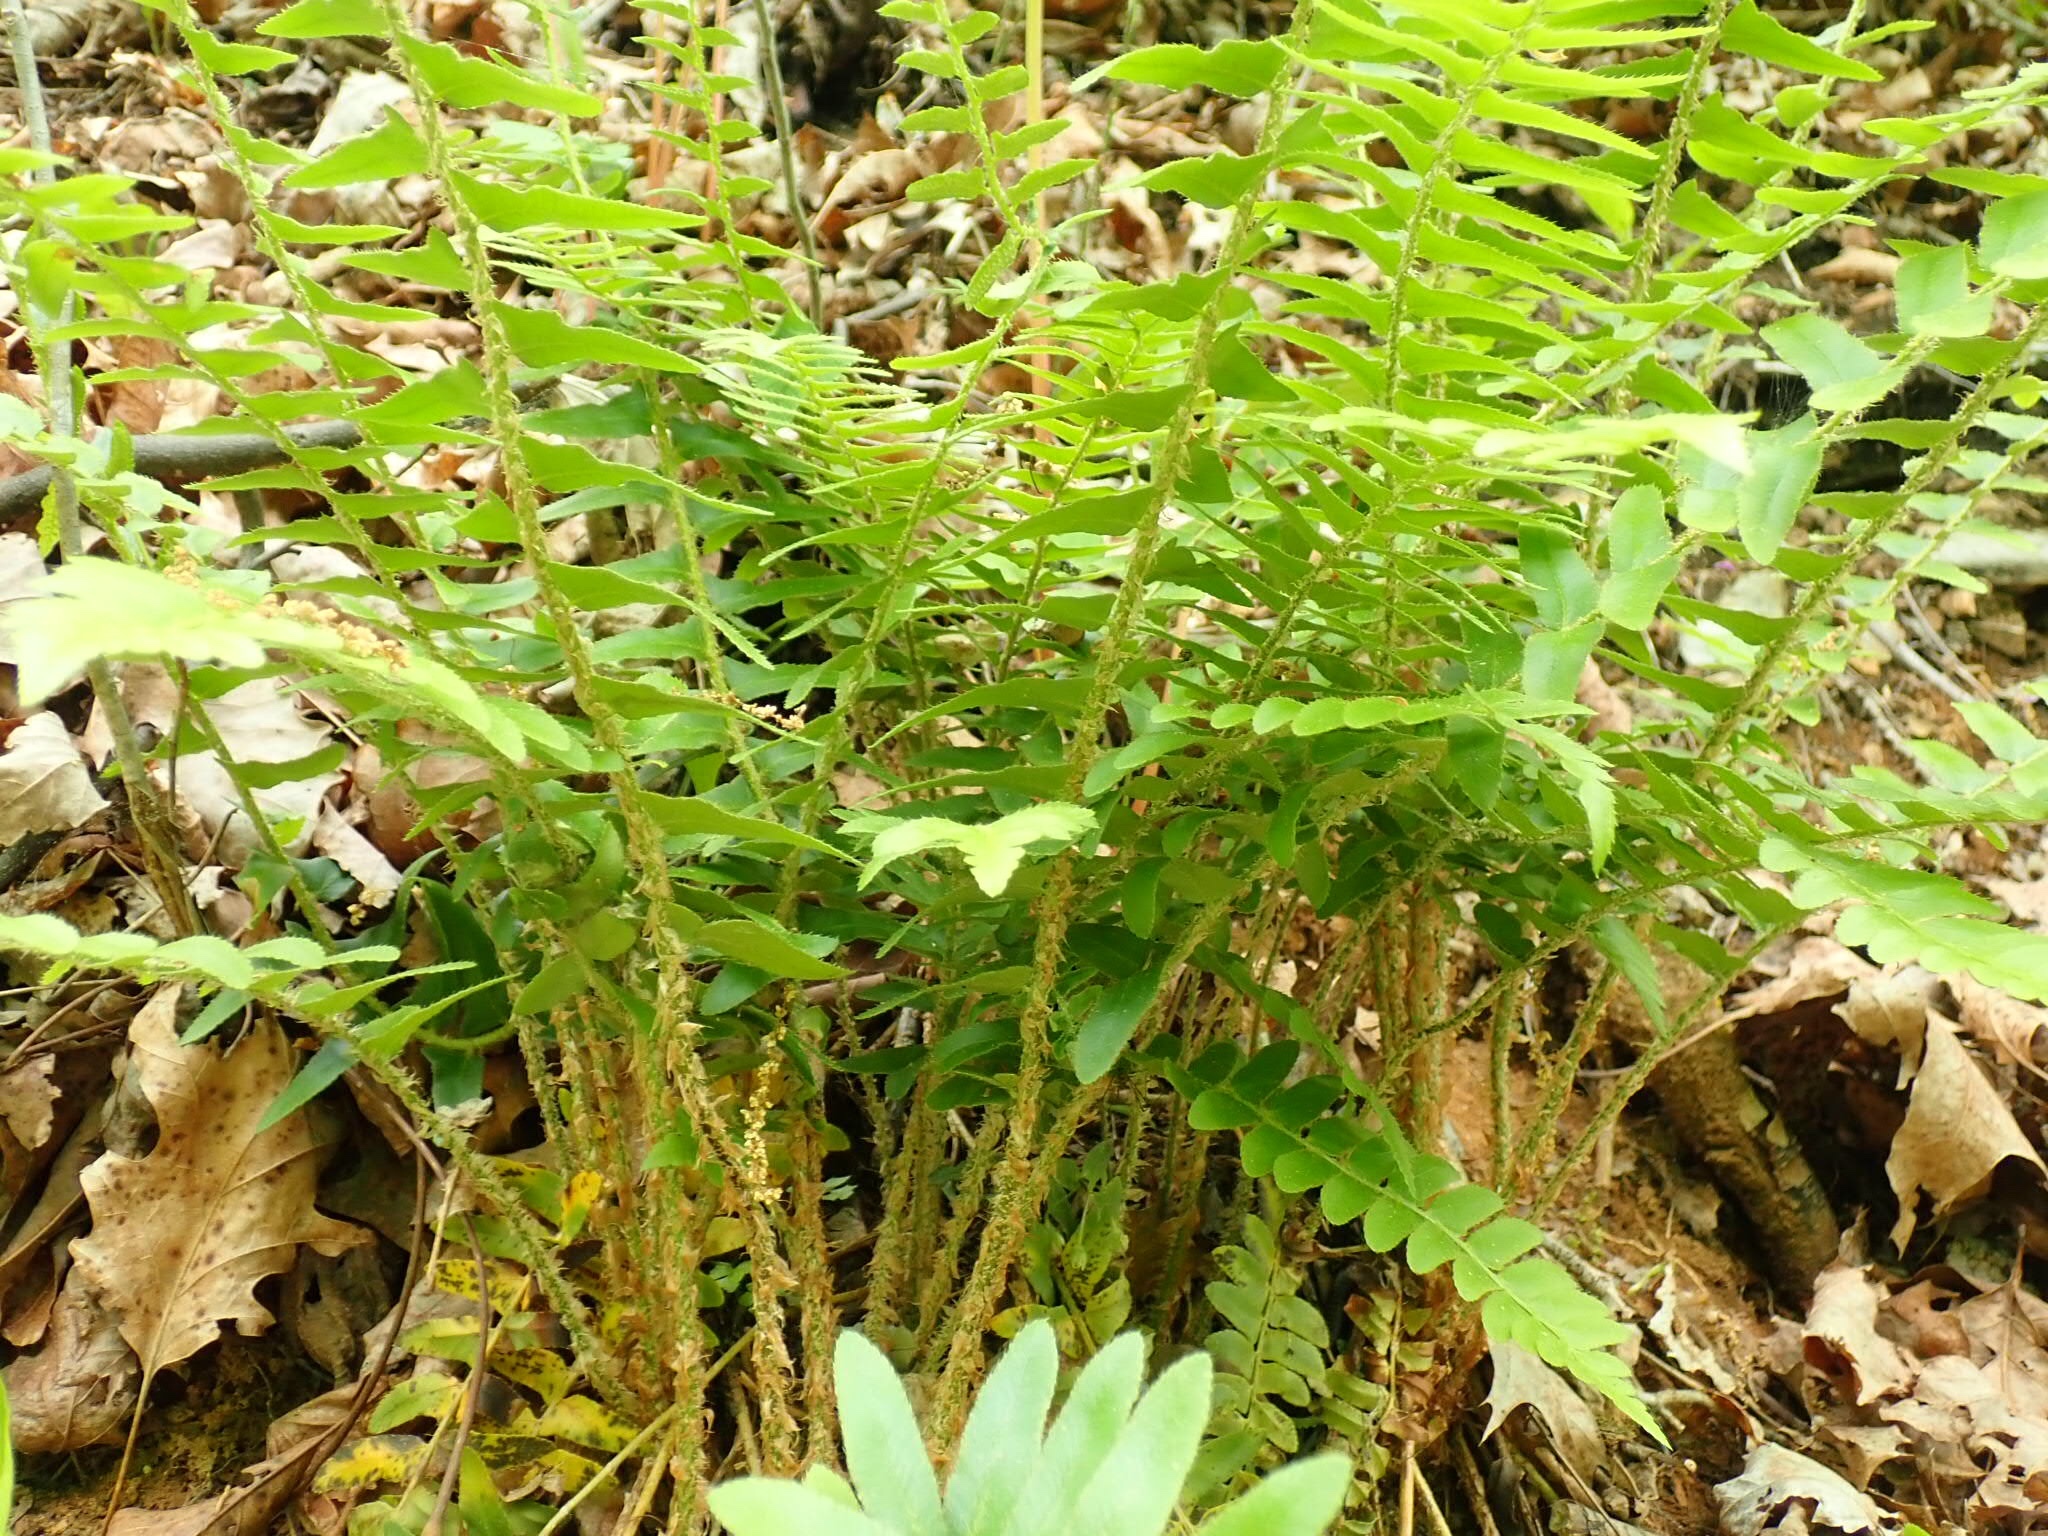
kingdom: Plantae
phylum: Tracheophyta
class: Polypodiopsida
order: Polypodiales
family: Dryopteridaceae
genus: Polystichum
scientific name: Polystichum acrostichoides
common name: Christmas fern
